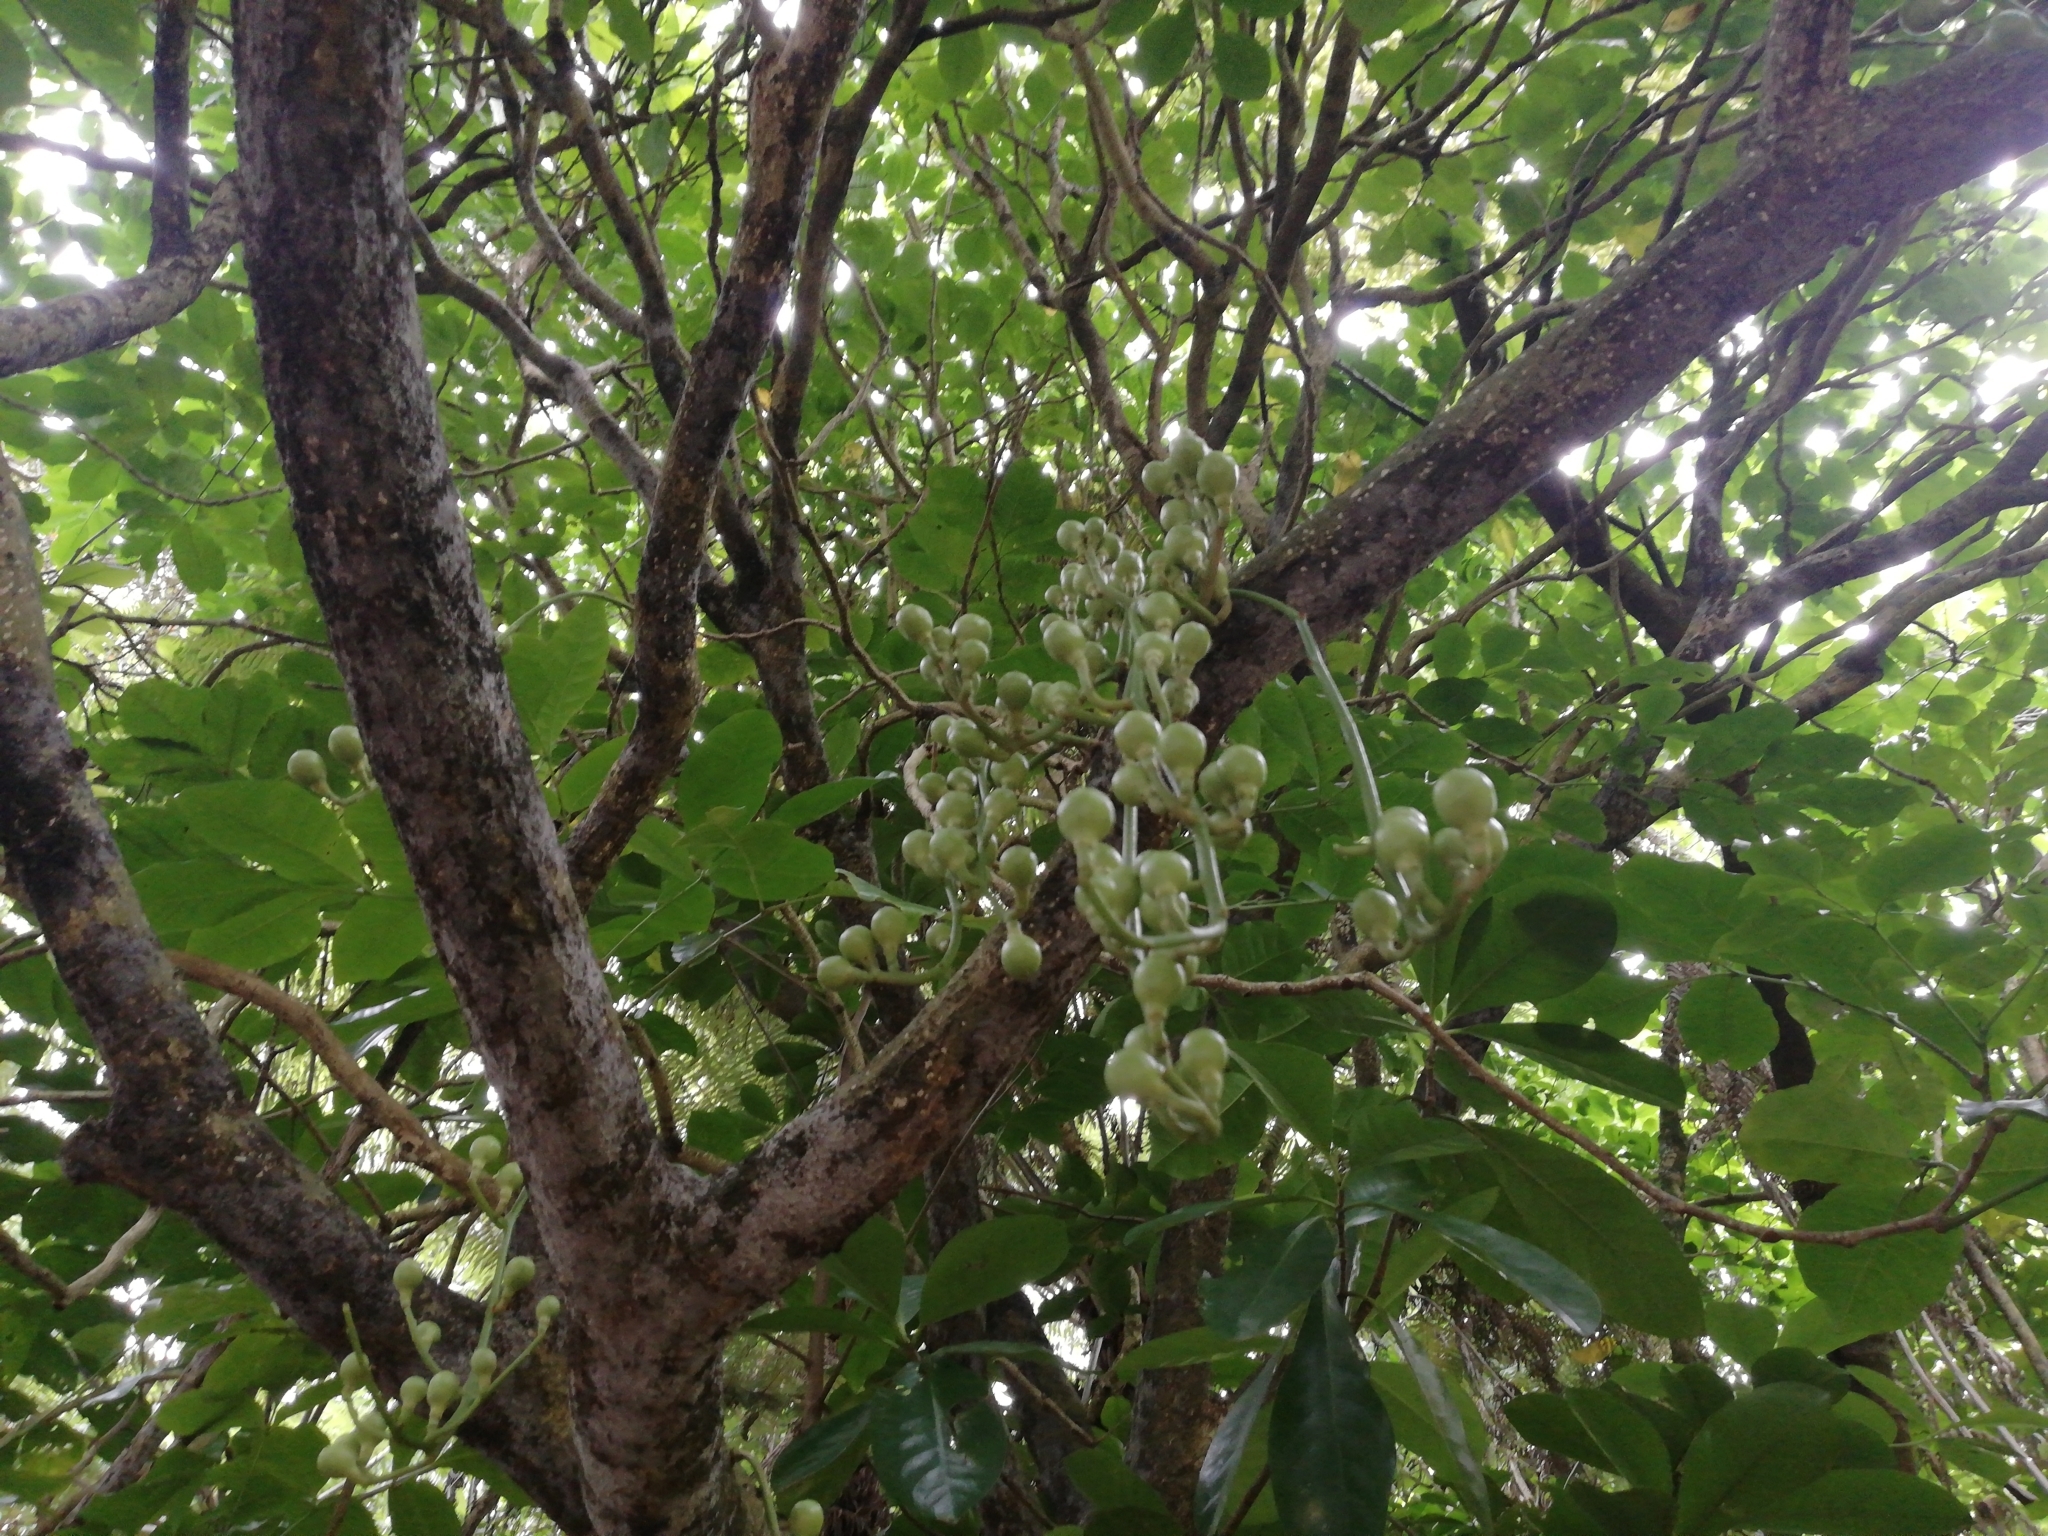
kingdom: Plantae
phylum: Tracheophyta
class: Magnoliopsida
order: Sapindales
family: Meliaceae
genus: Didymocheton
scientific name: Didymocheton spectabilis
